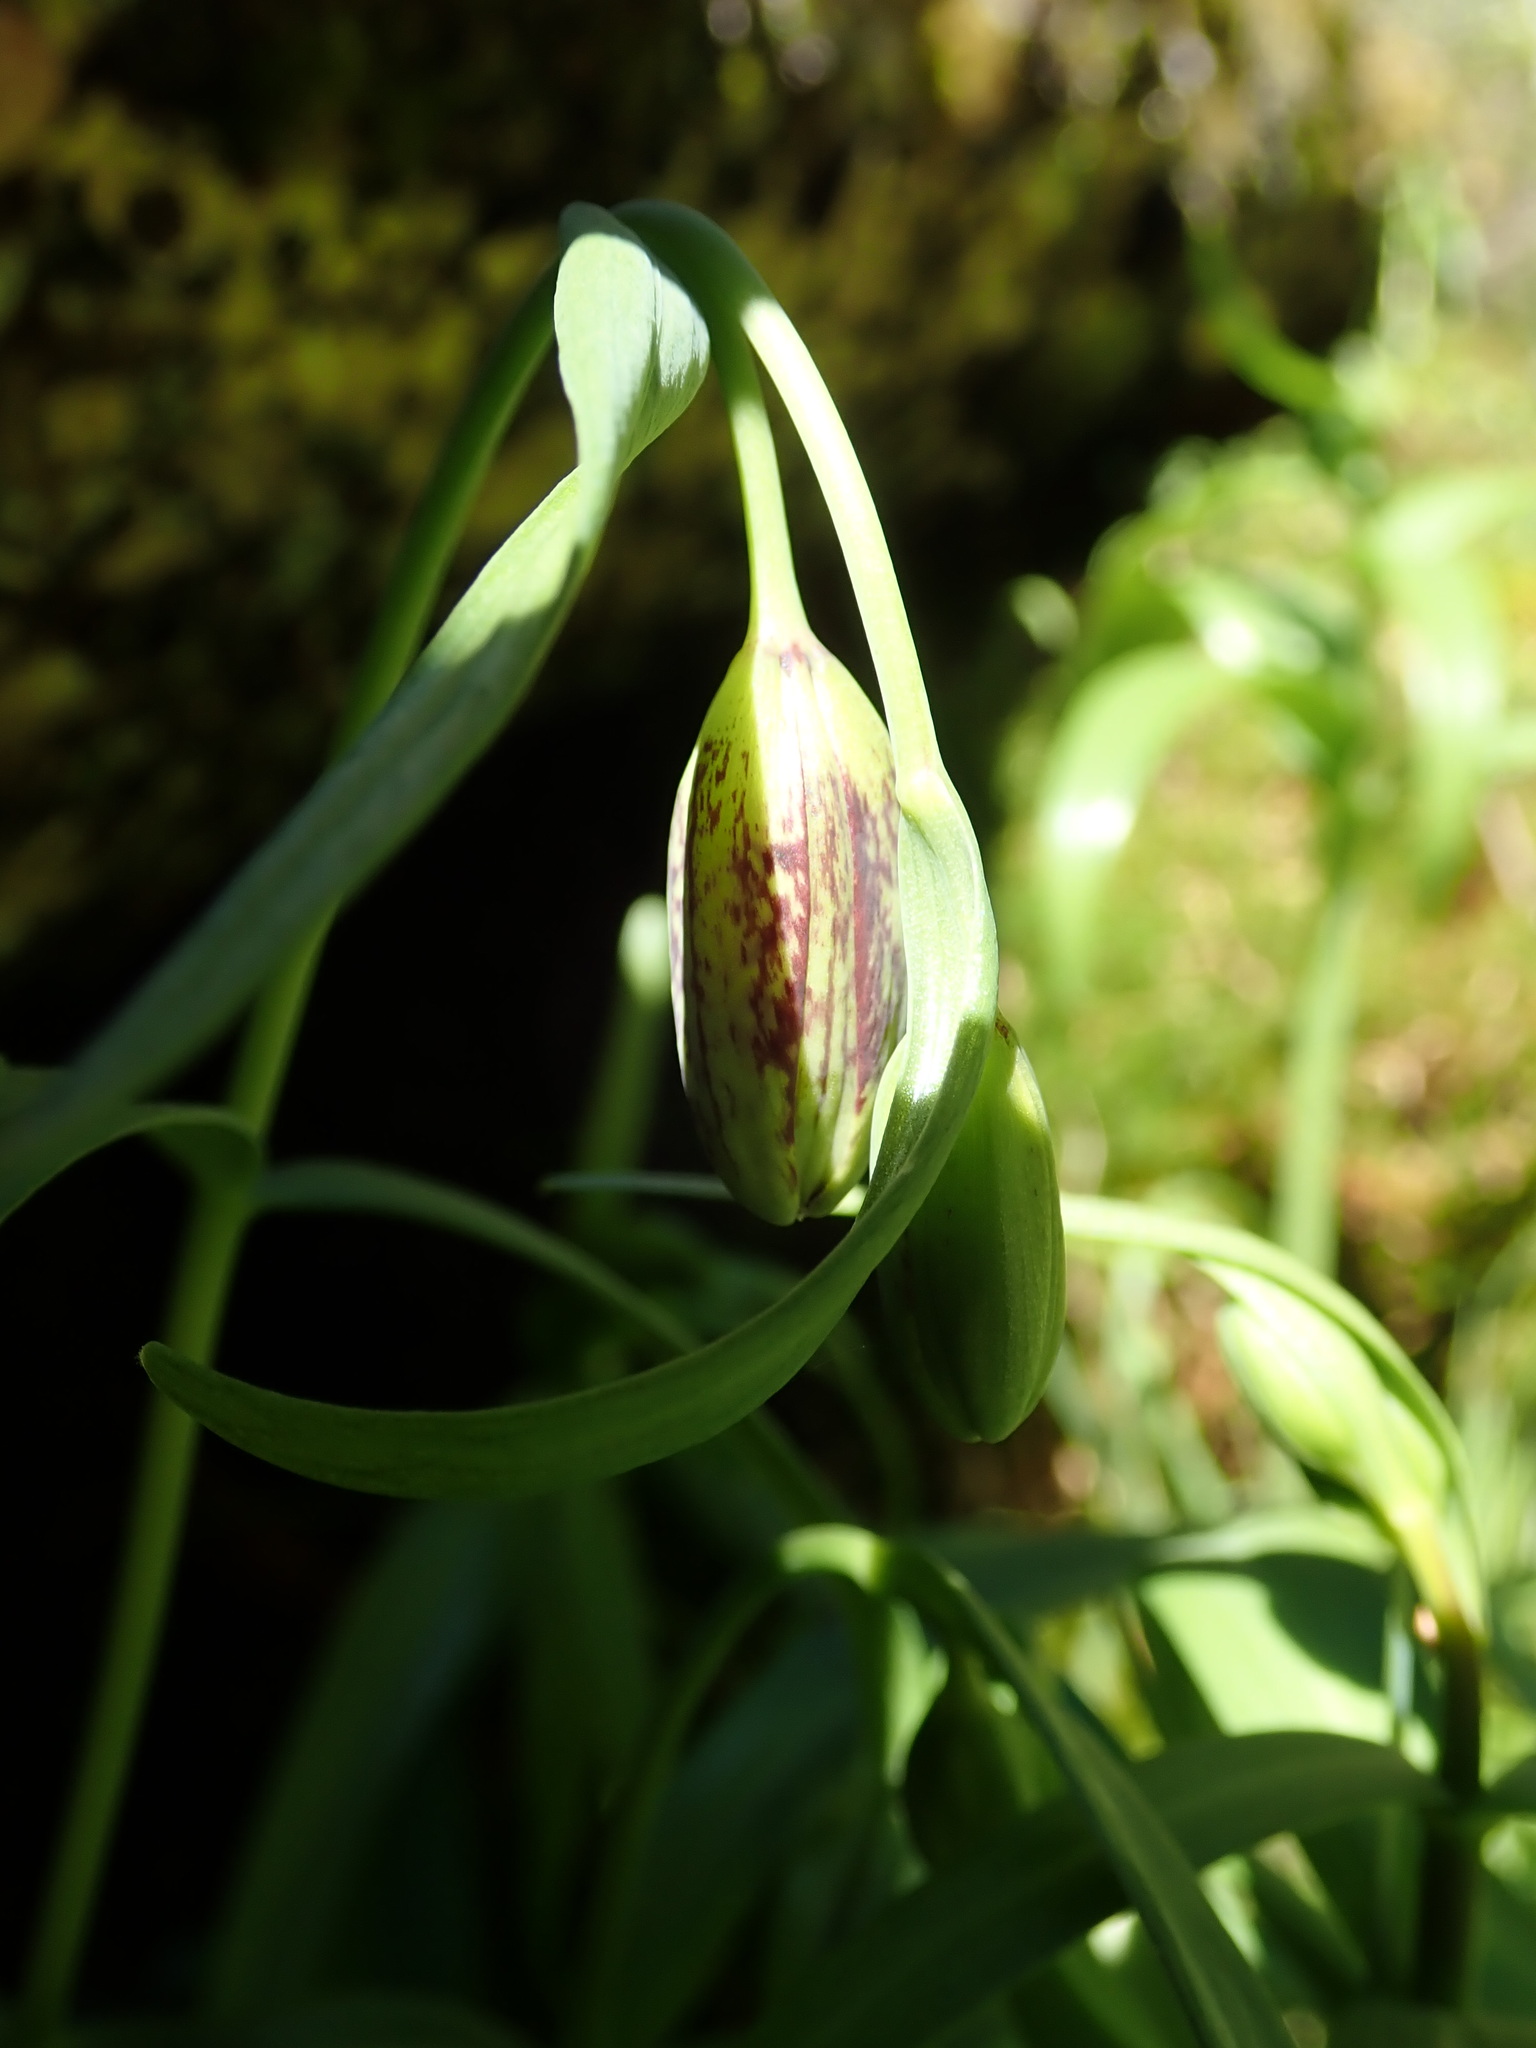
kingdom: Plantae
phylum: Tracheophyta
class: Liliopsida
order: Liliales
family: Liliaceae
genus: Fritillaria
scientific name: Fritillaria affinis
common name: Ojai fritillary
